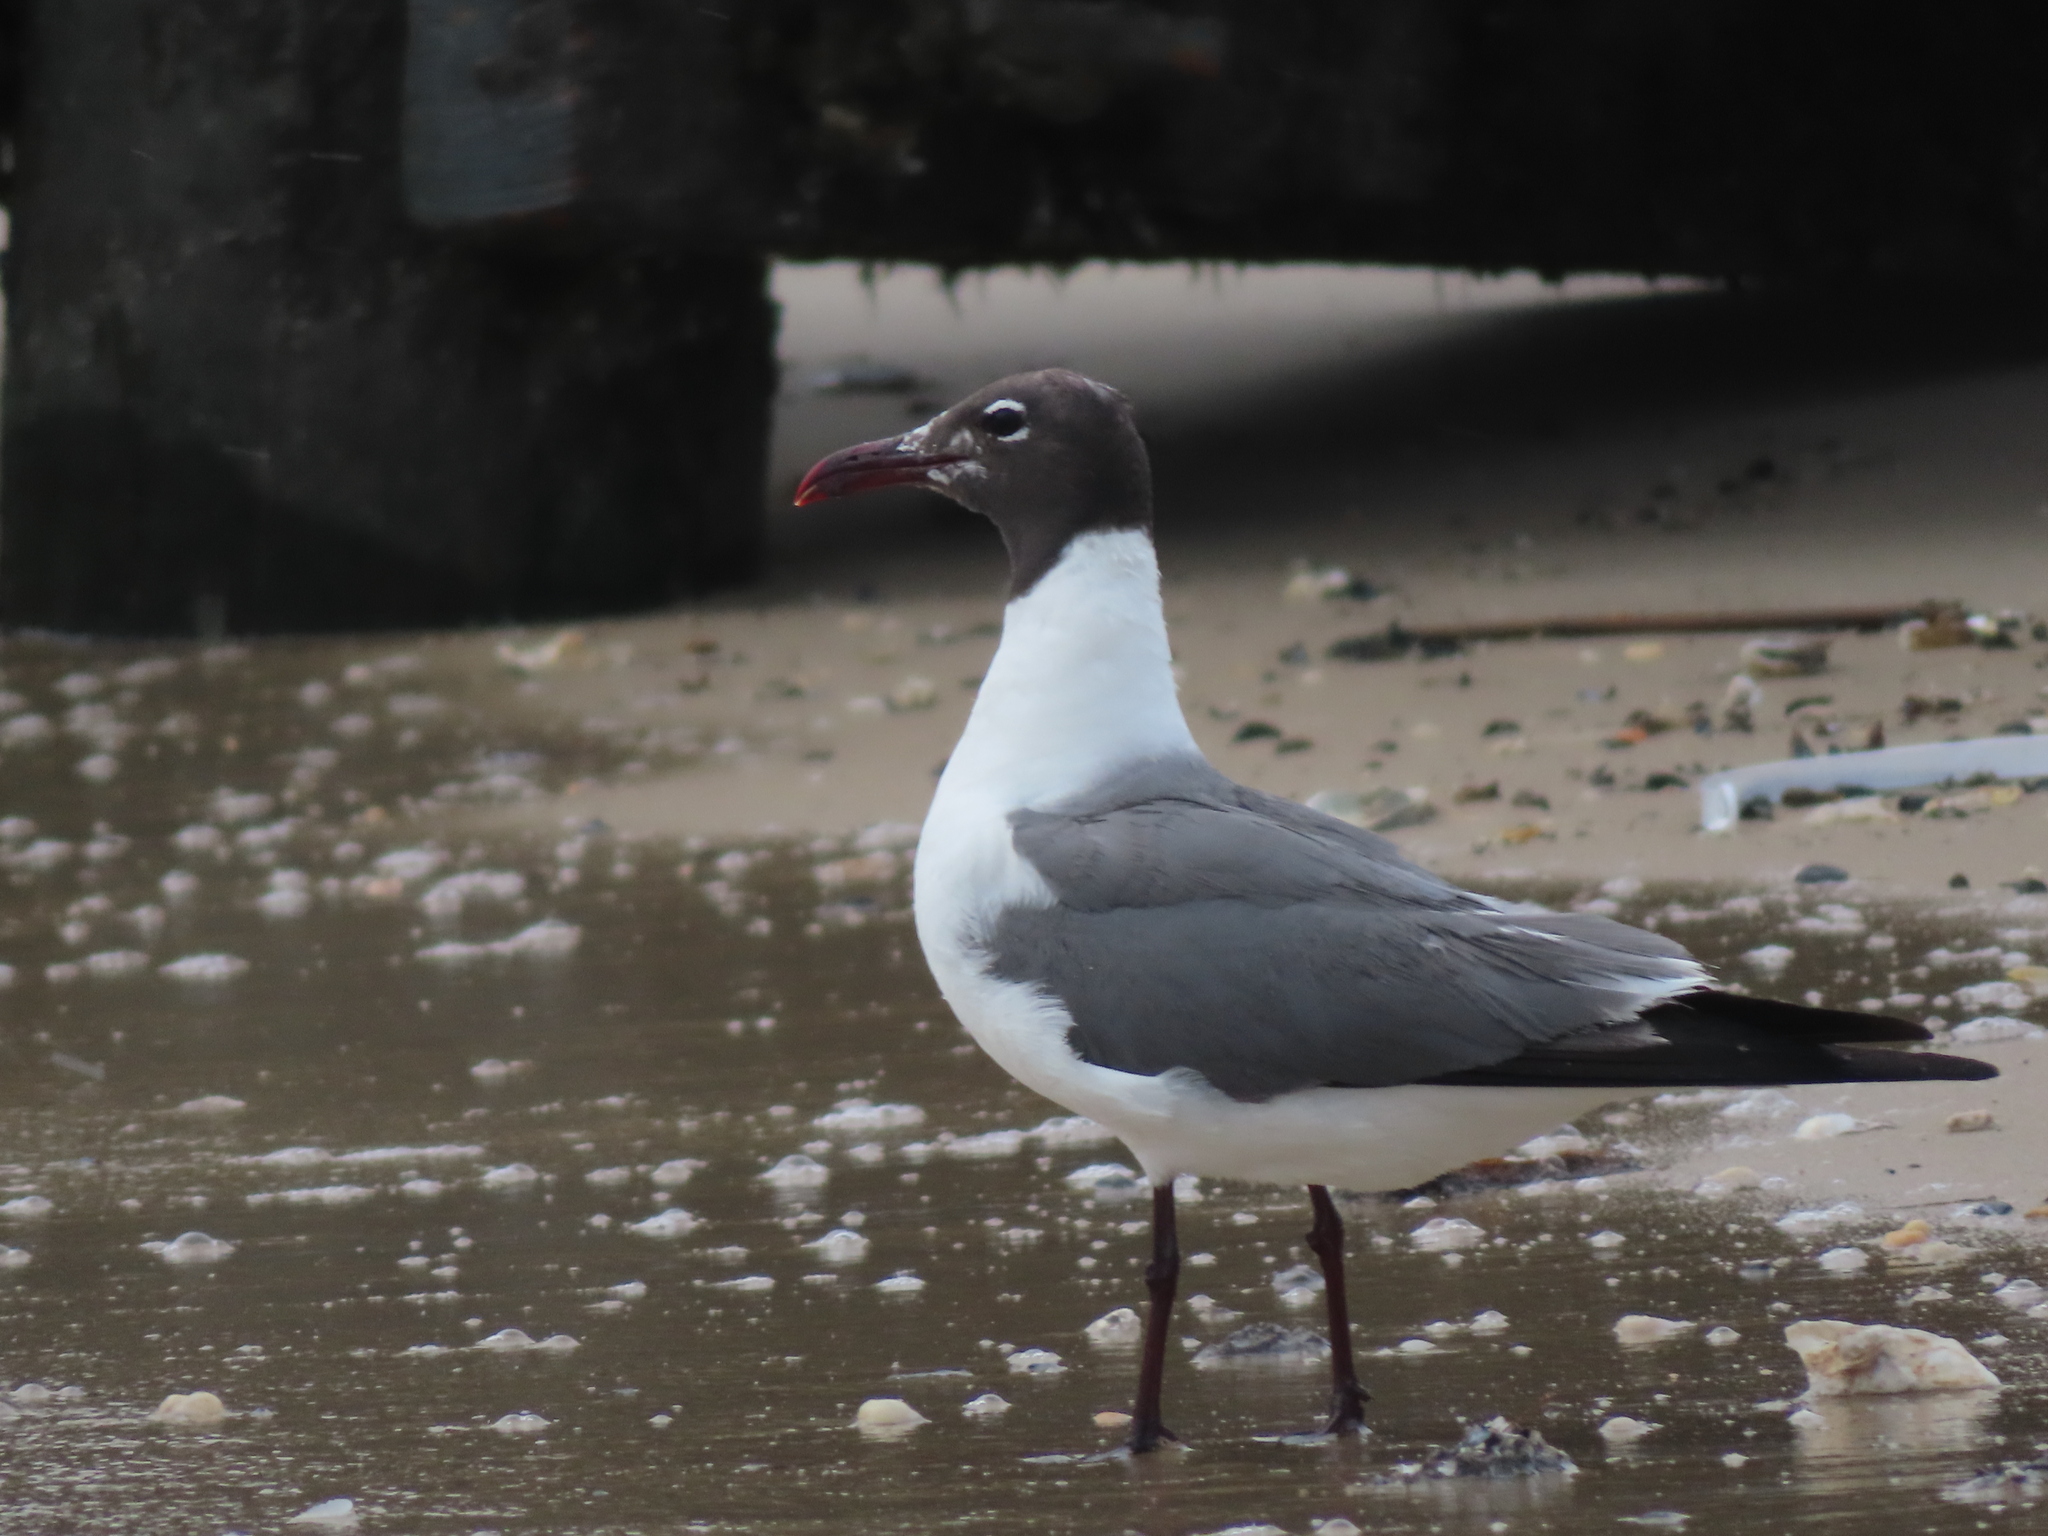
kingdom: Animalia
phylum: Chordata
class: Aves
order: Charadriiformes
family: Laridae
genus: Leucophaeus
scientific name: Leucophaeus atricilla
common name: Laughing gull
